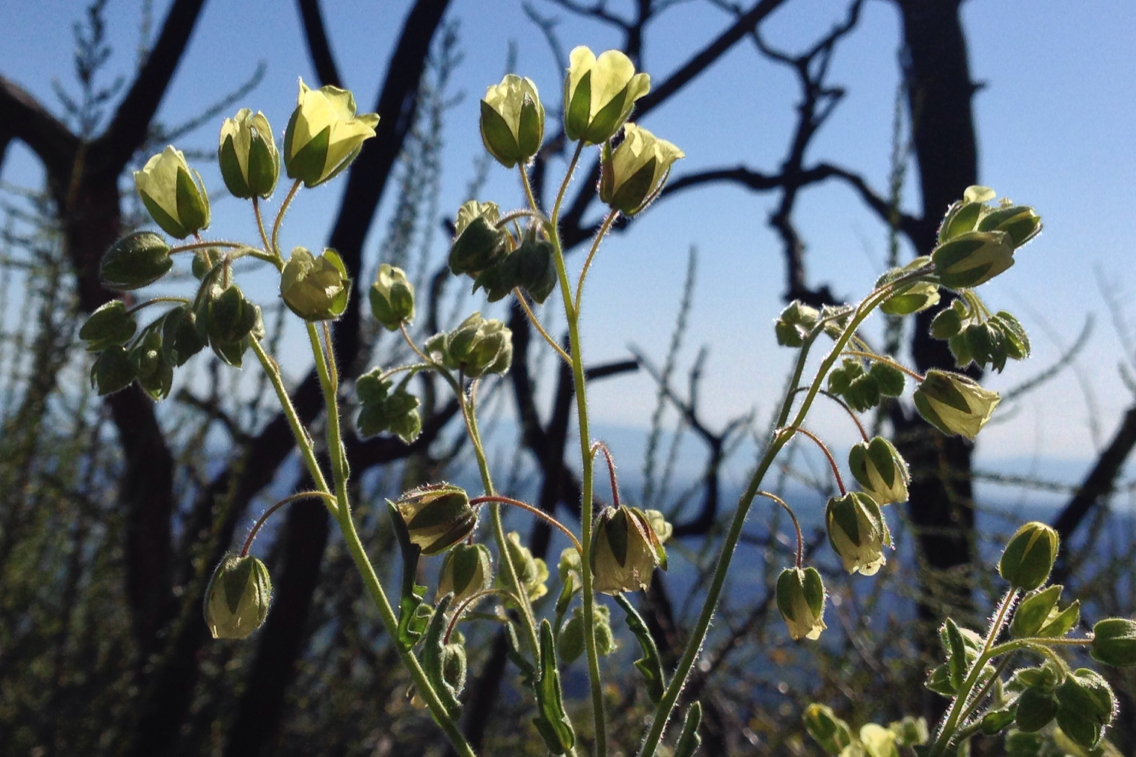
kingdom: Plantae
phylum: Tracheophyta
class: Magnoliopsida
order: Boraginales
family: Hydrophyllaceae
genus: Emmenanthe
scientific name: Emmenanthe penduliflora
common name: Whispering-bells
